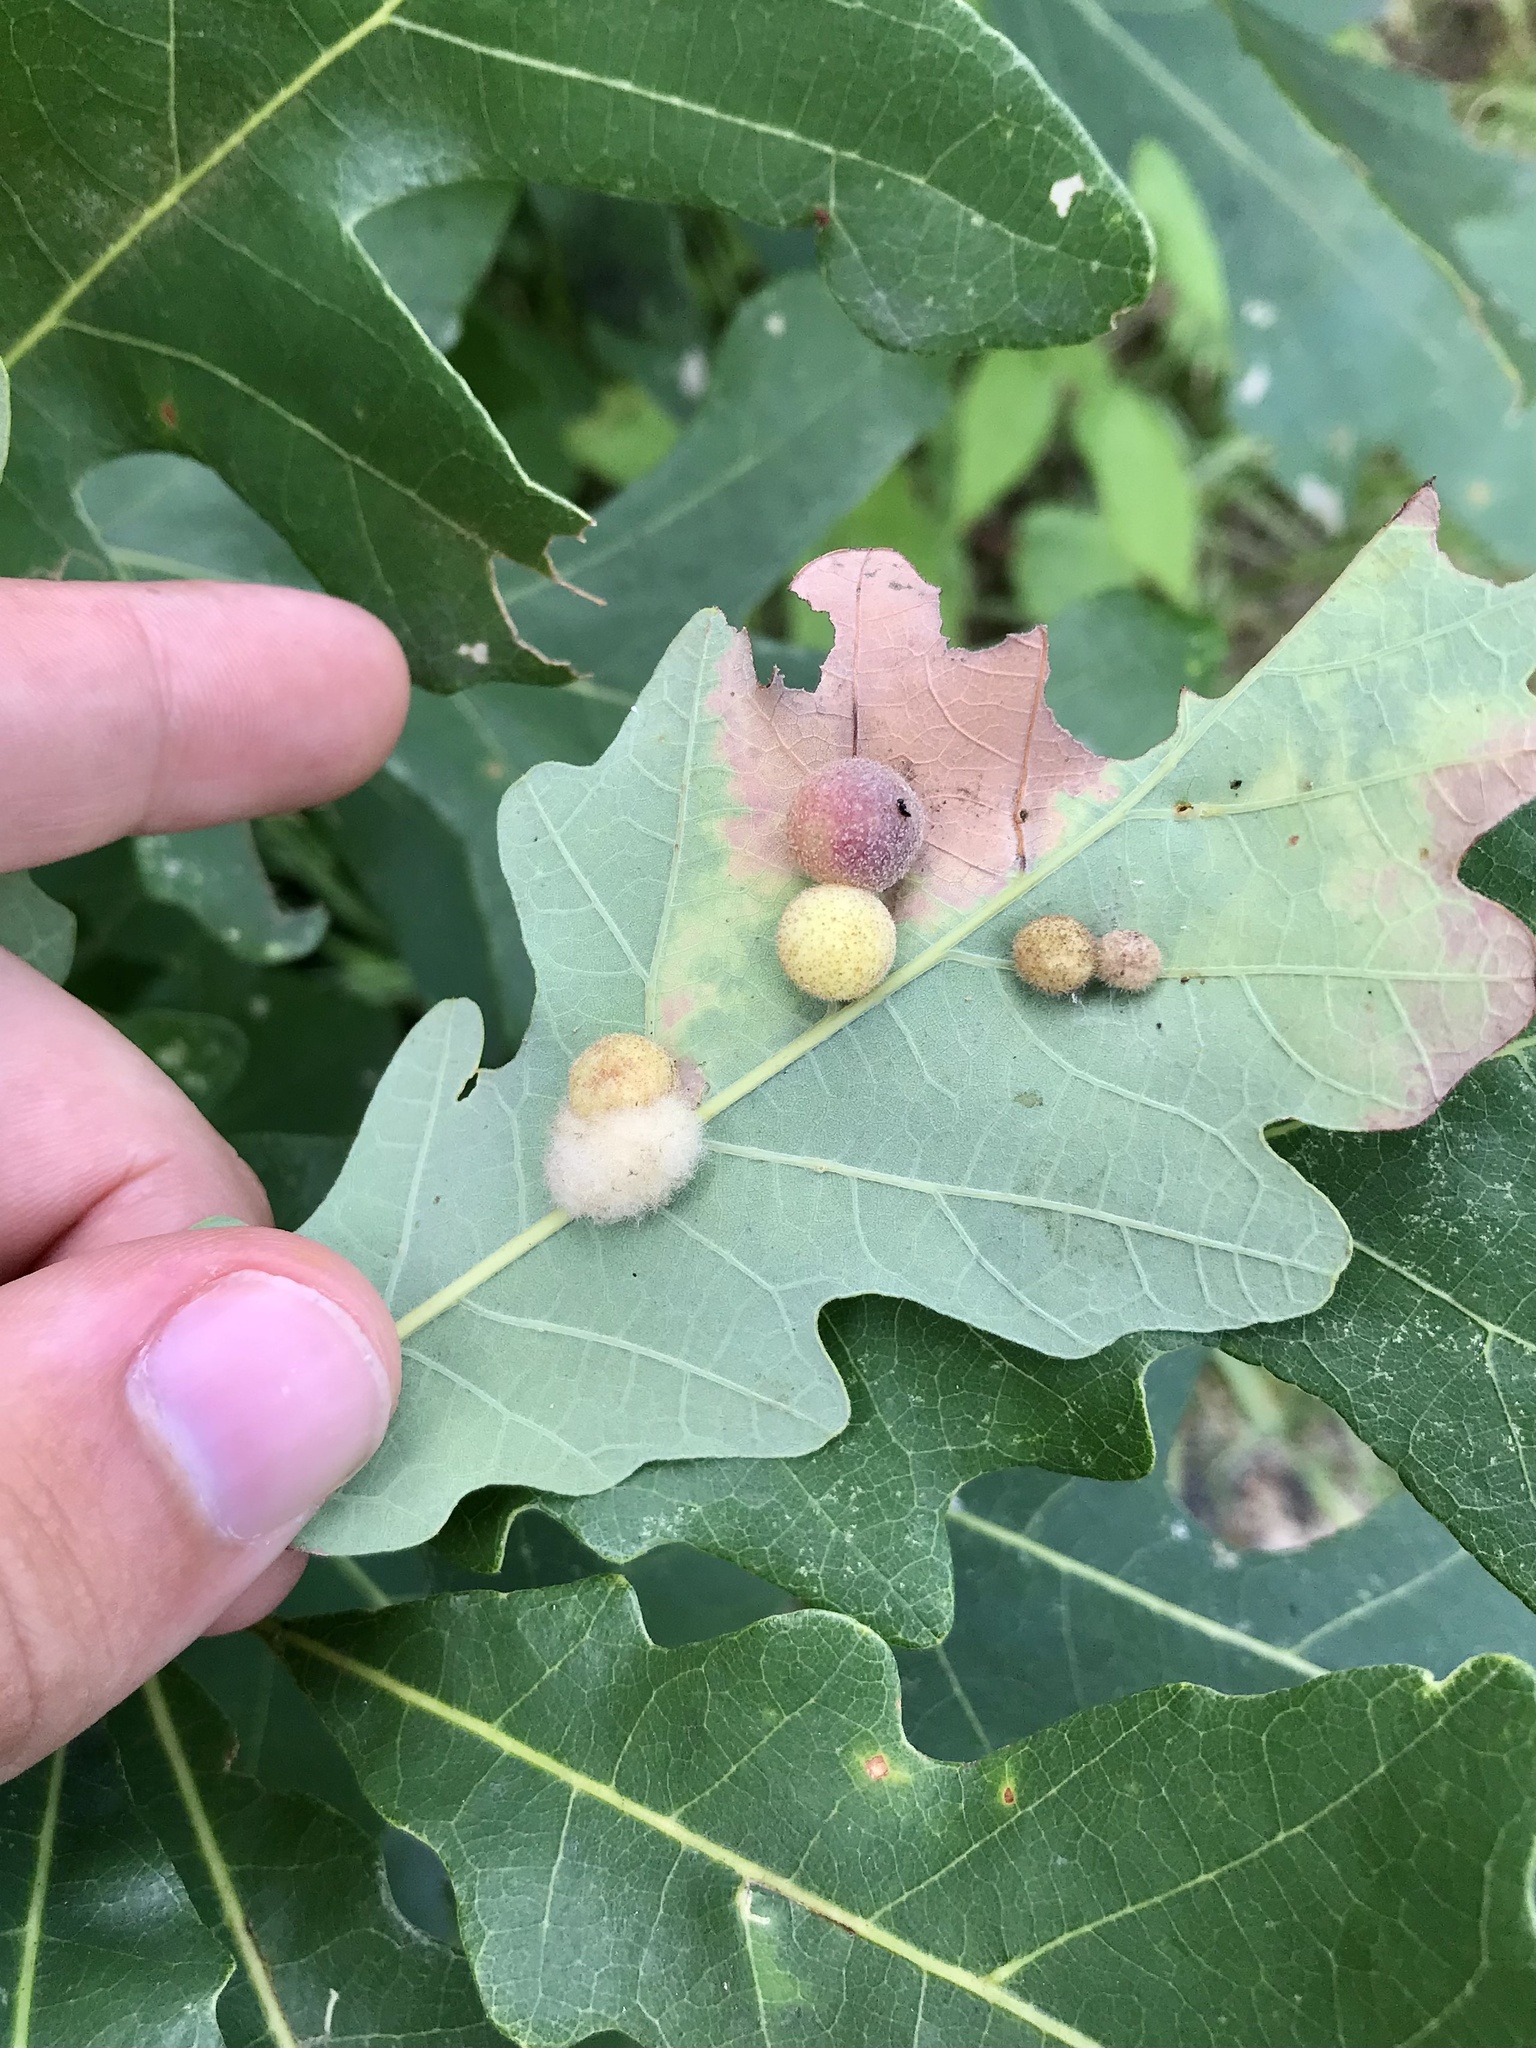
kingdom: Animalia
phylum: Arthropoda
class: Insecta
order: Hymenoptera
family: Cynipidae
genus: Philonix
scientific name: Philonix fulvicollis
